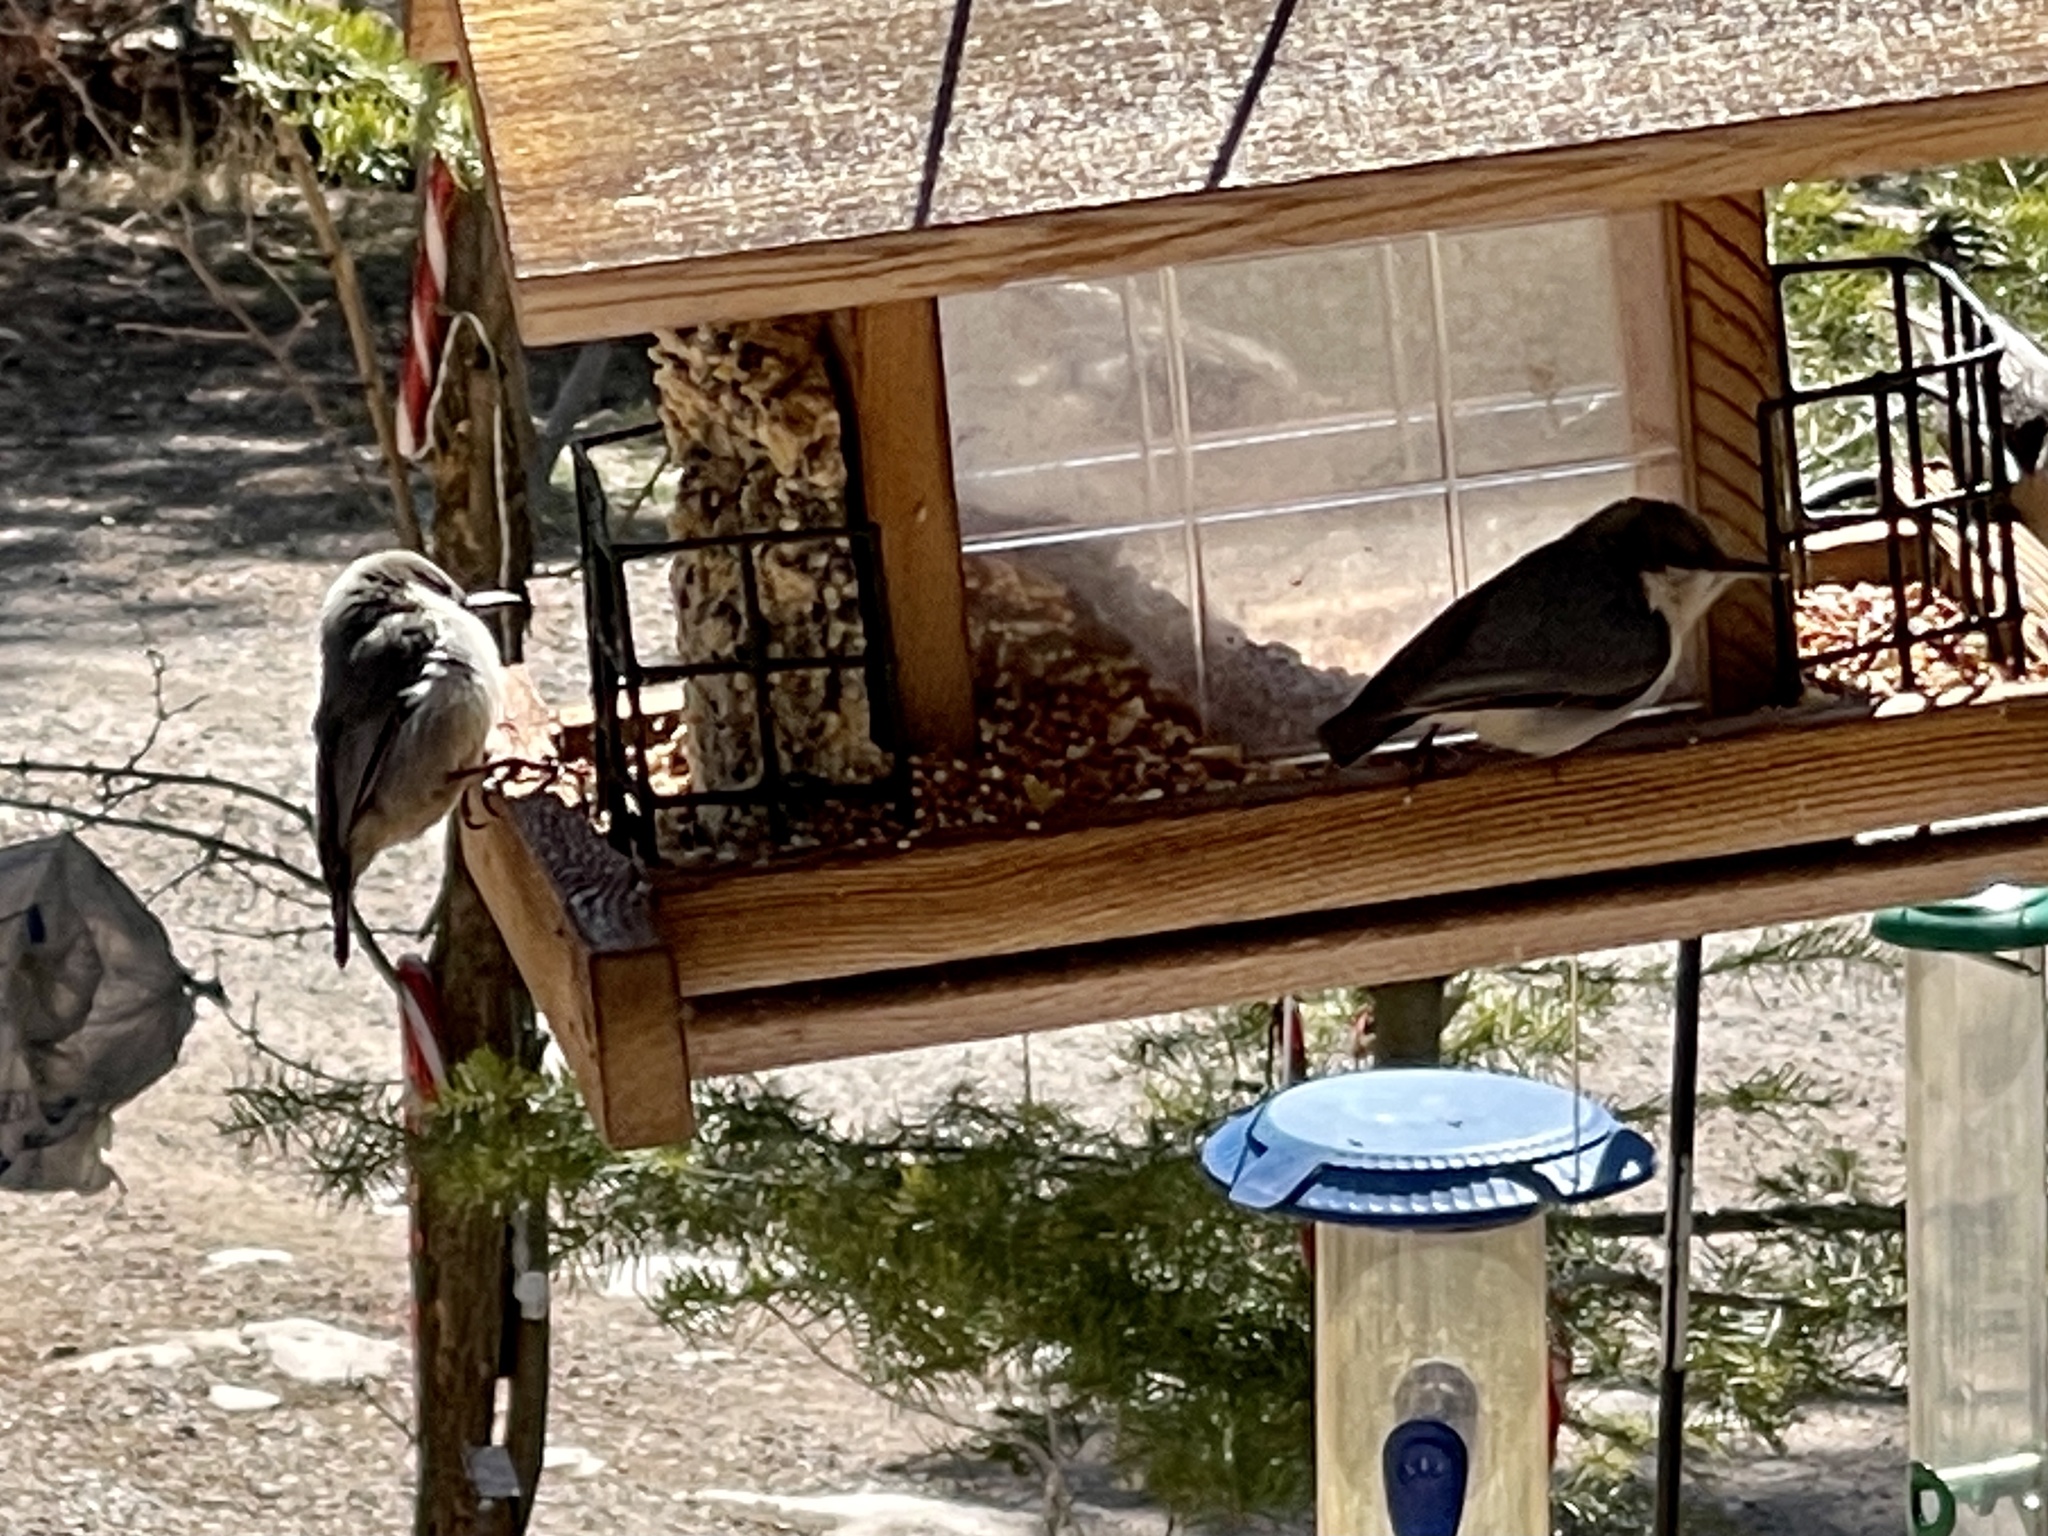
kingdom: Animalia
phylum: Chordata
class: Aves
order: Passeriformes
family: Sittidae
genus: Sitta
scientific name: Sitta pygmaea
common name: Pygmy nuthatch
